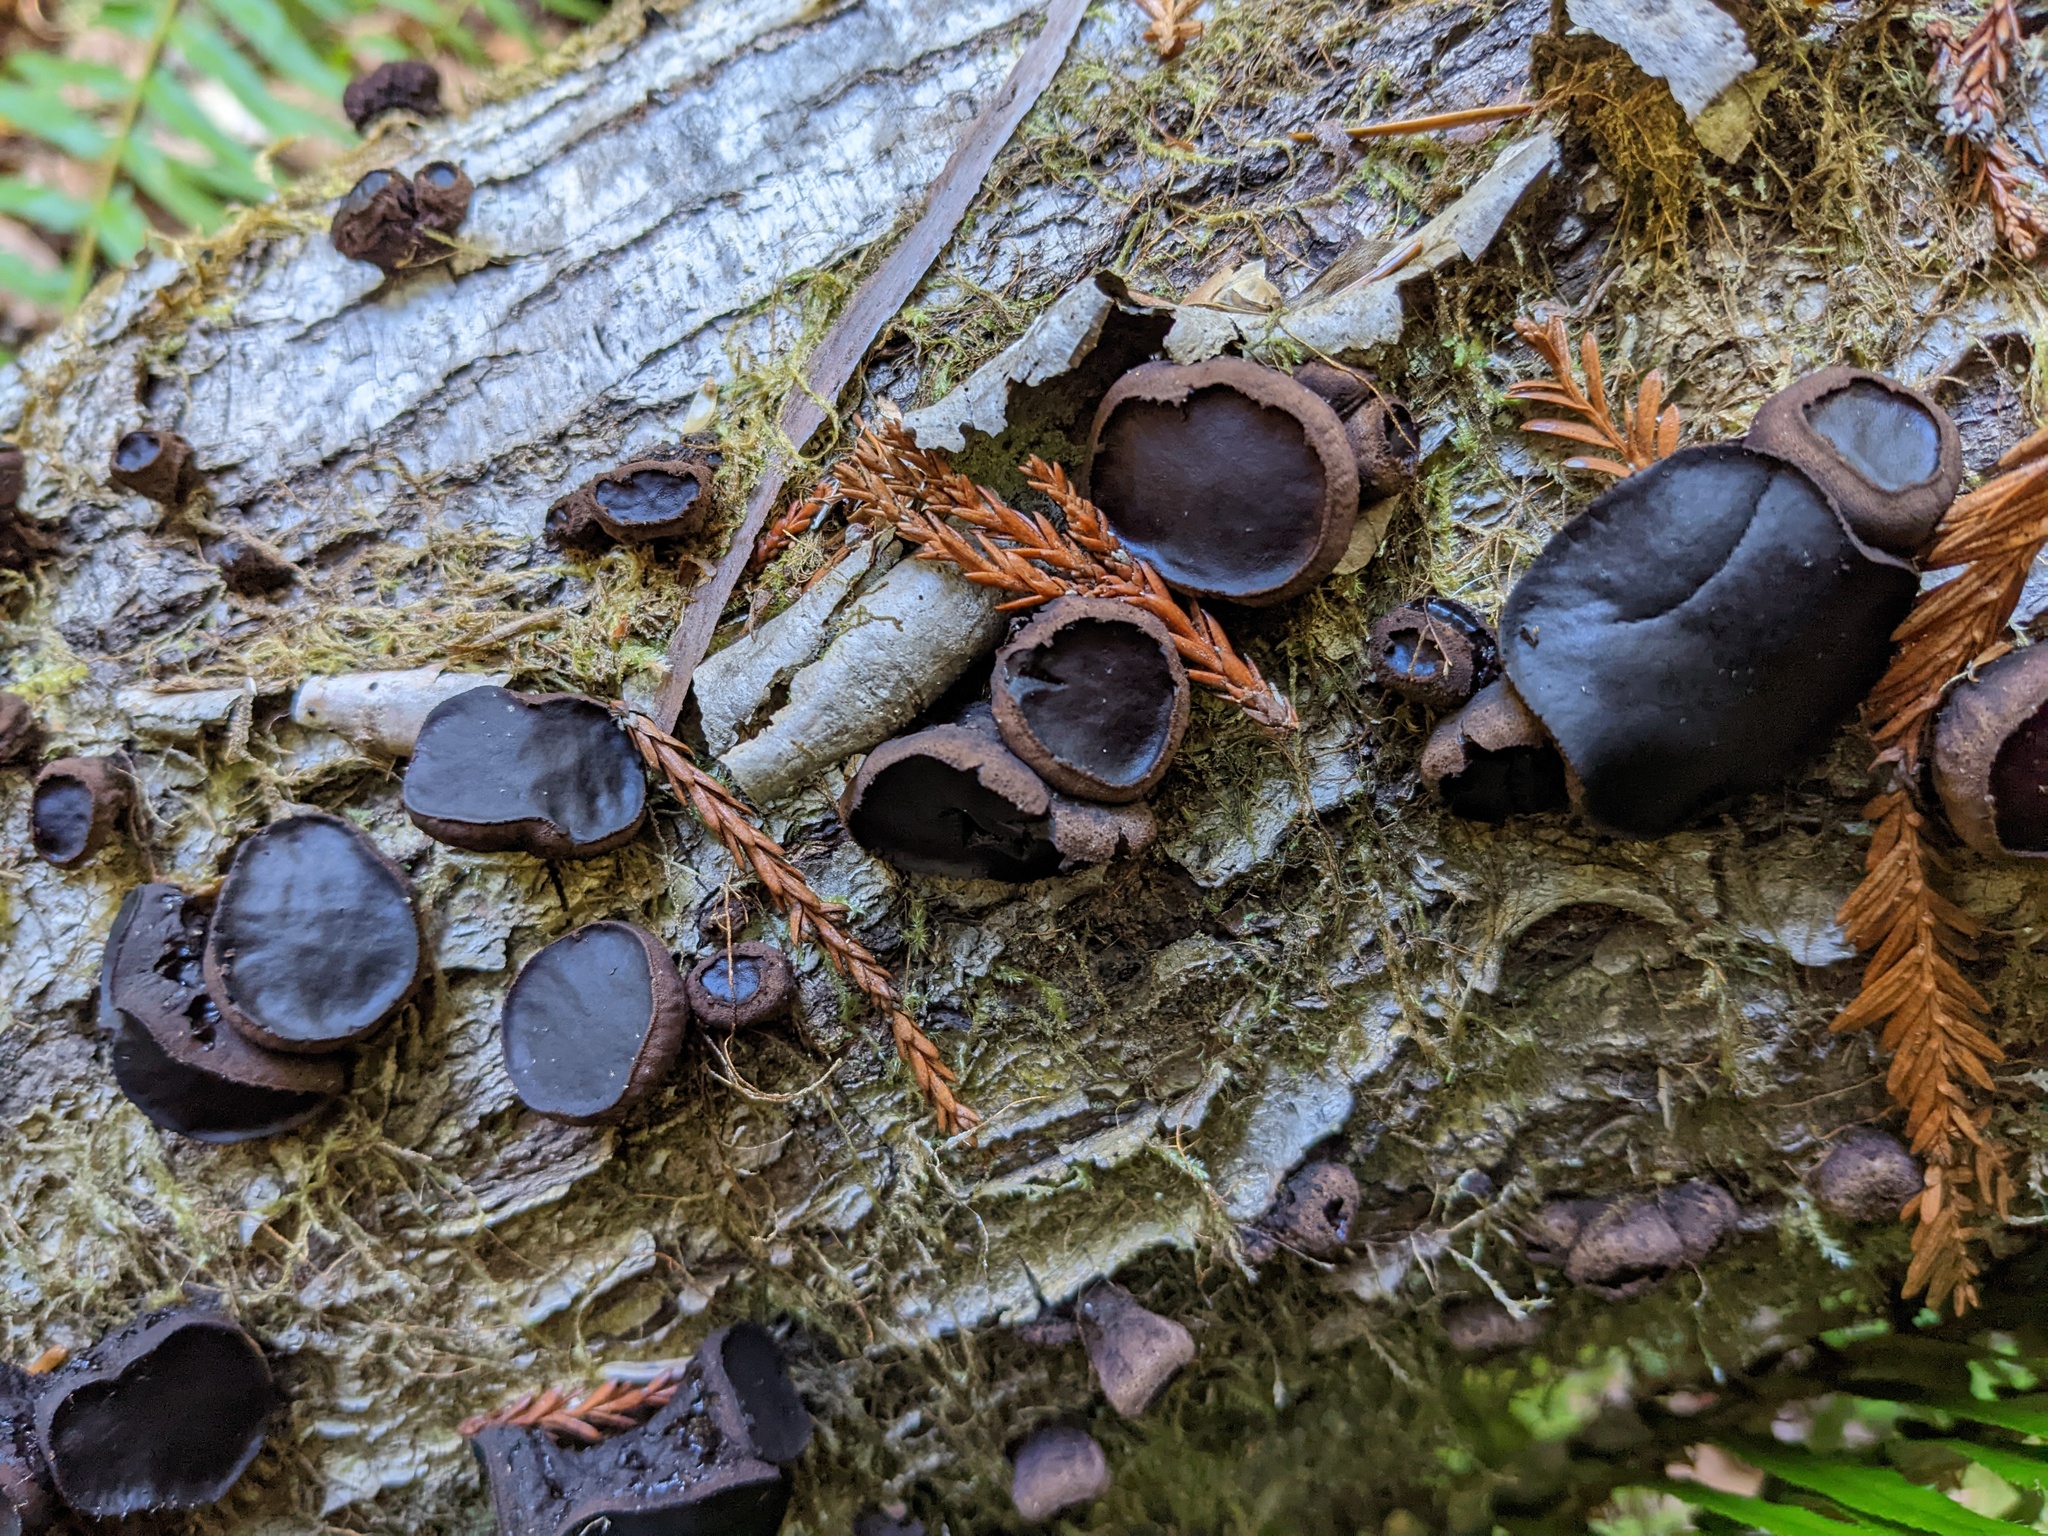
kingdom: Fungi
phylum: Ascomycota
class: Leotiomycetes
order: Phacidiales
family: Phacidiaceae
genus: Bulgaria
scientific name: Bulgaria inquinans
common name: Black bulgar
